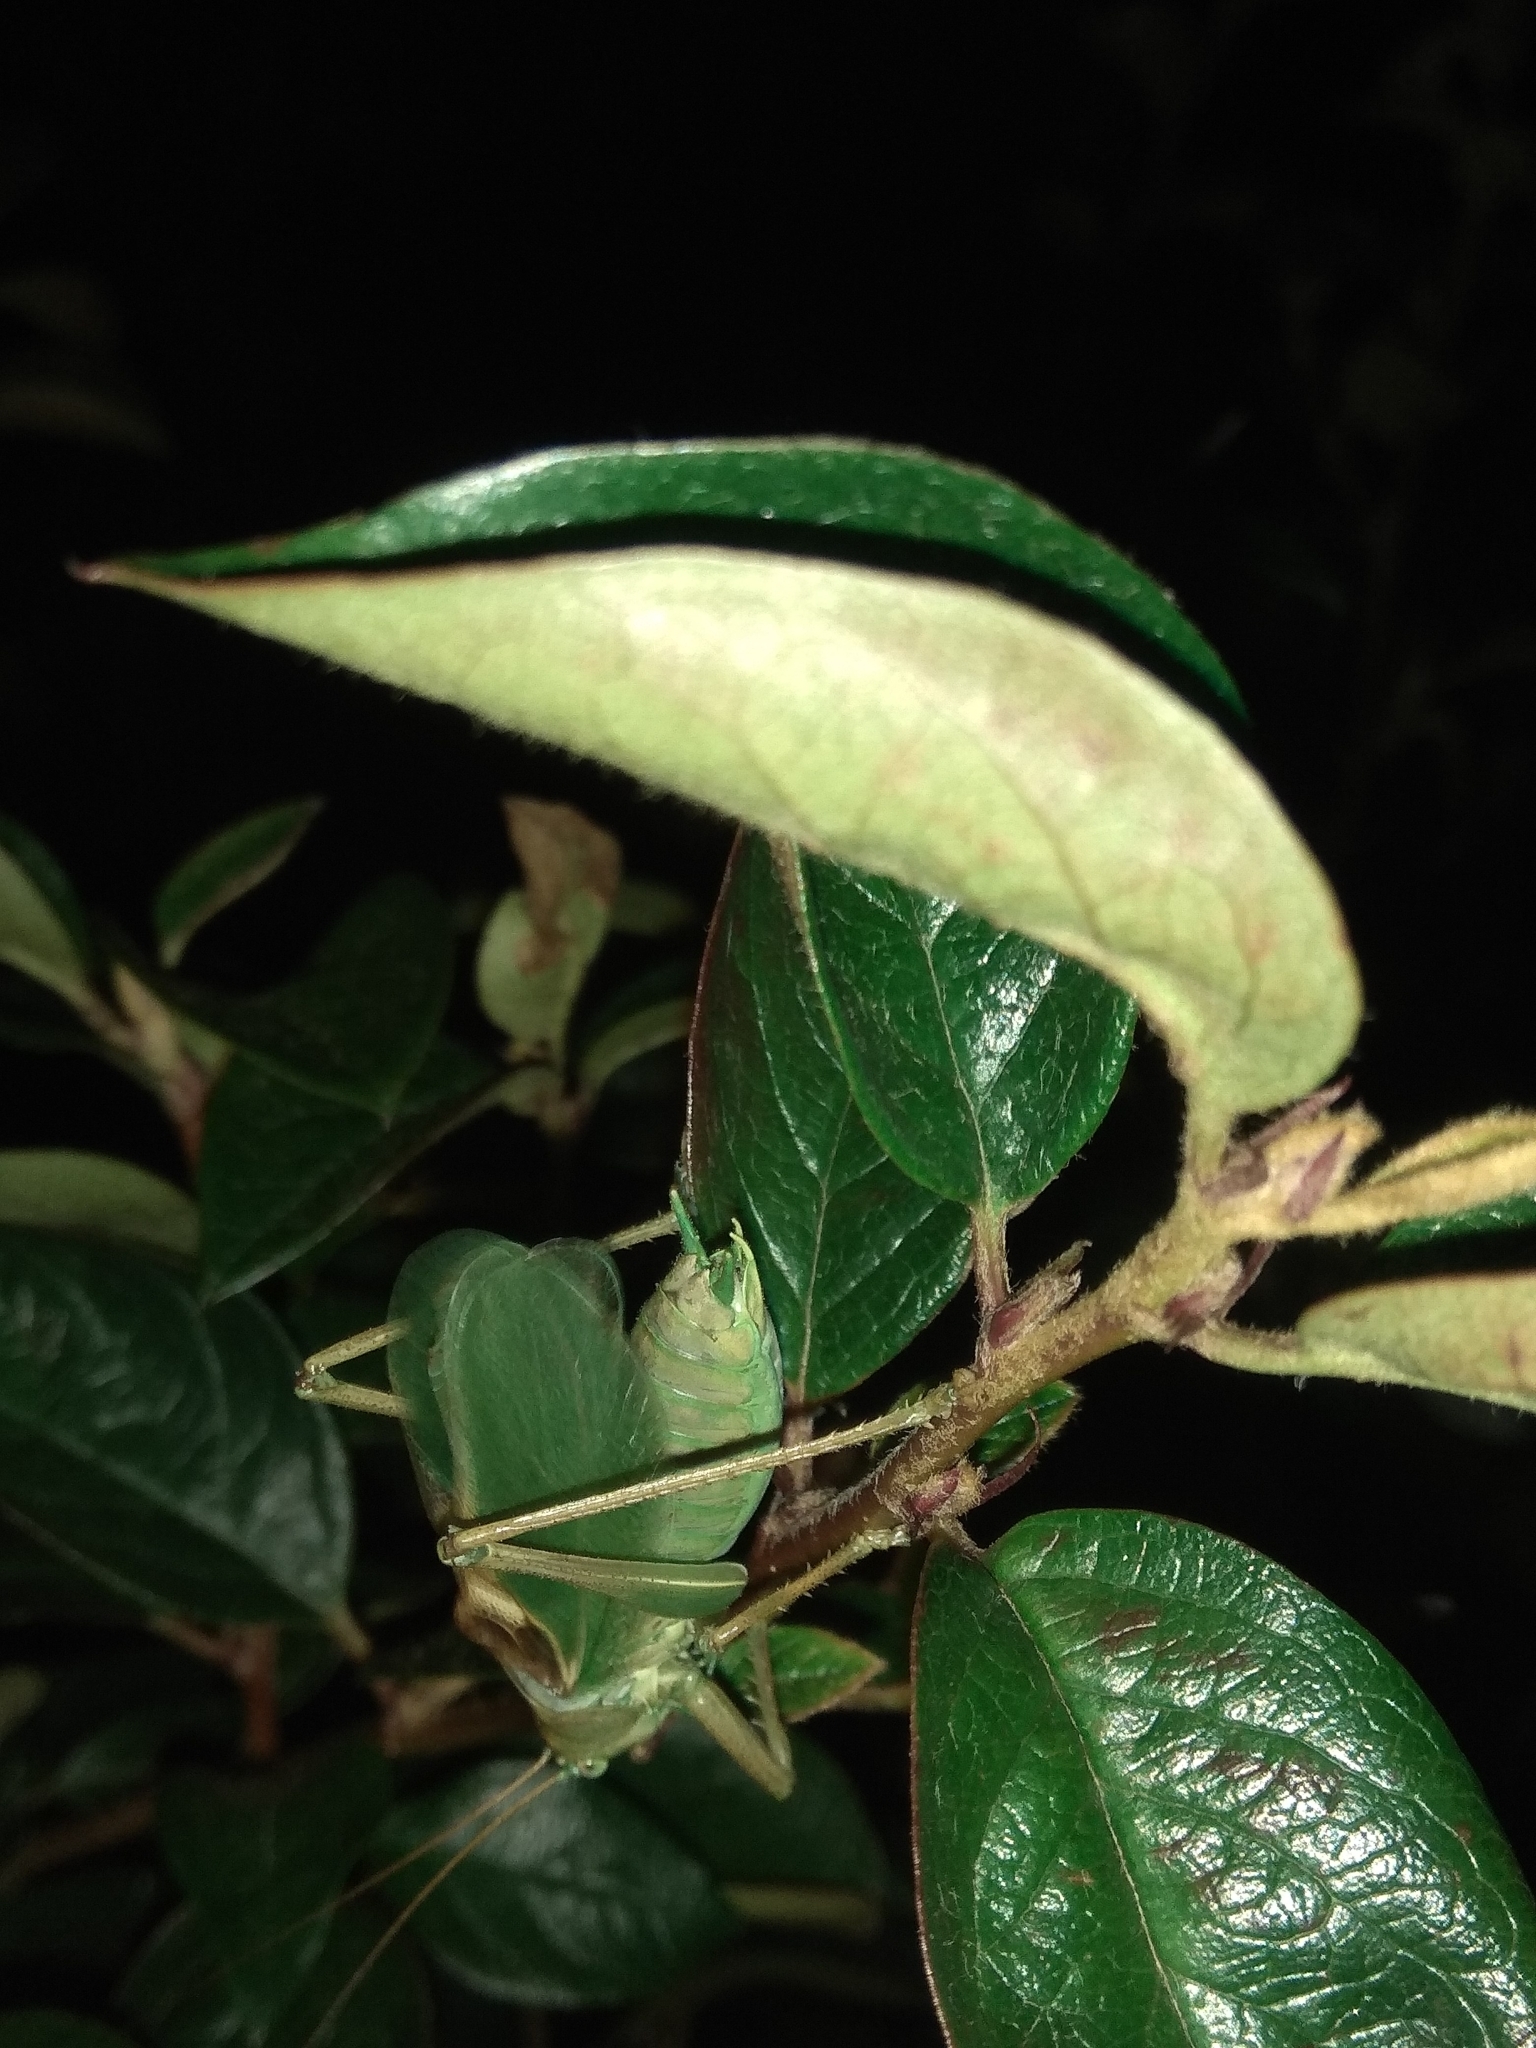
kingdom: Animalia
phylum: Arthropoda
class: Insecta
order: Orthoptera
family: Tettigoniidae
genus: Tettigonia
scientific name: Tettigonia cantans
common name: Upland green bush-cricket
